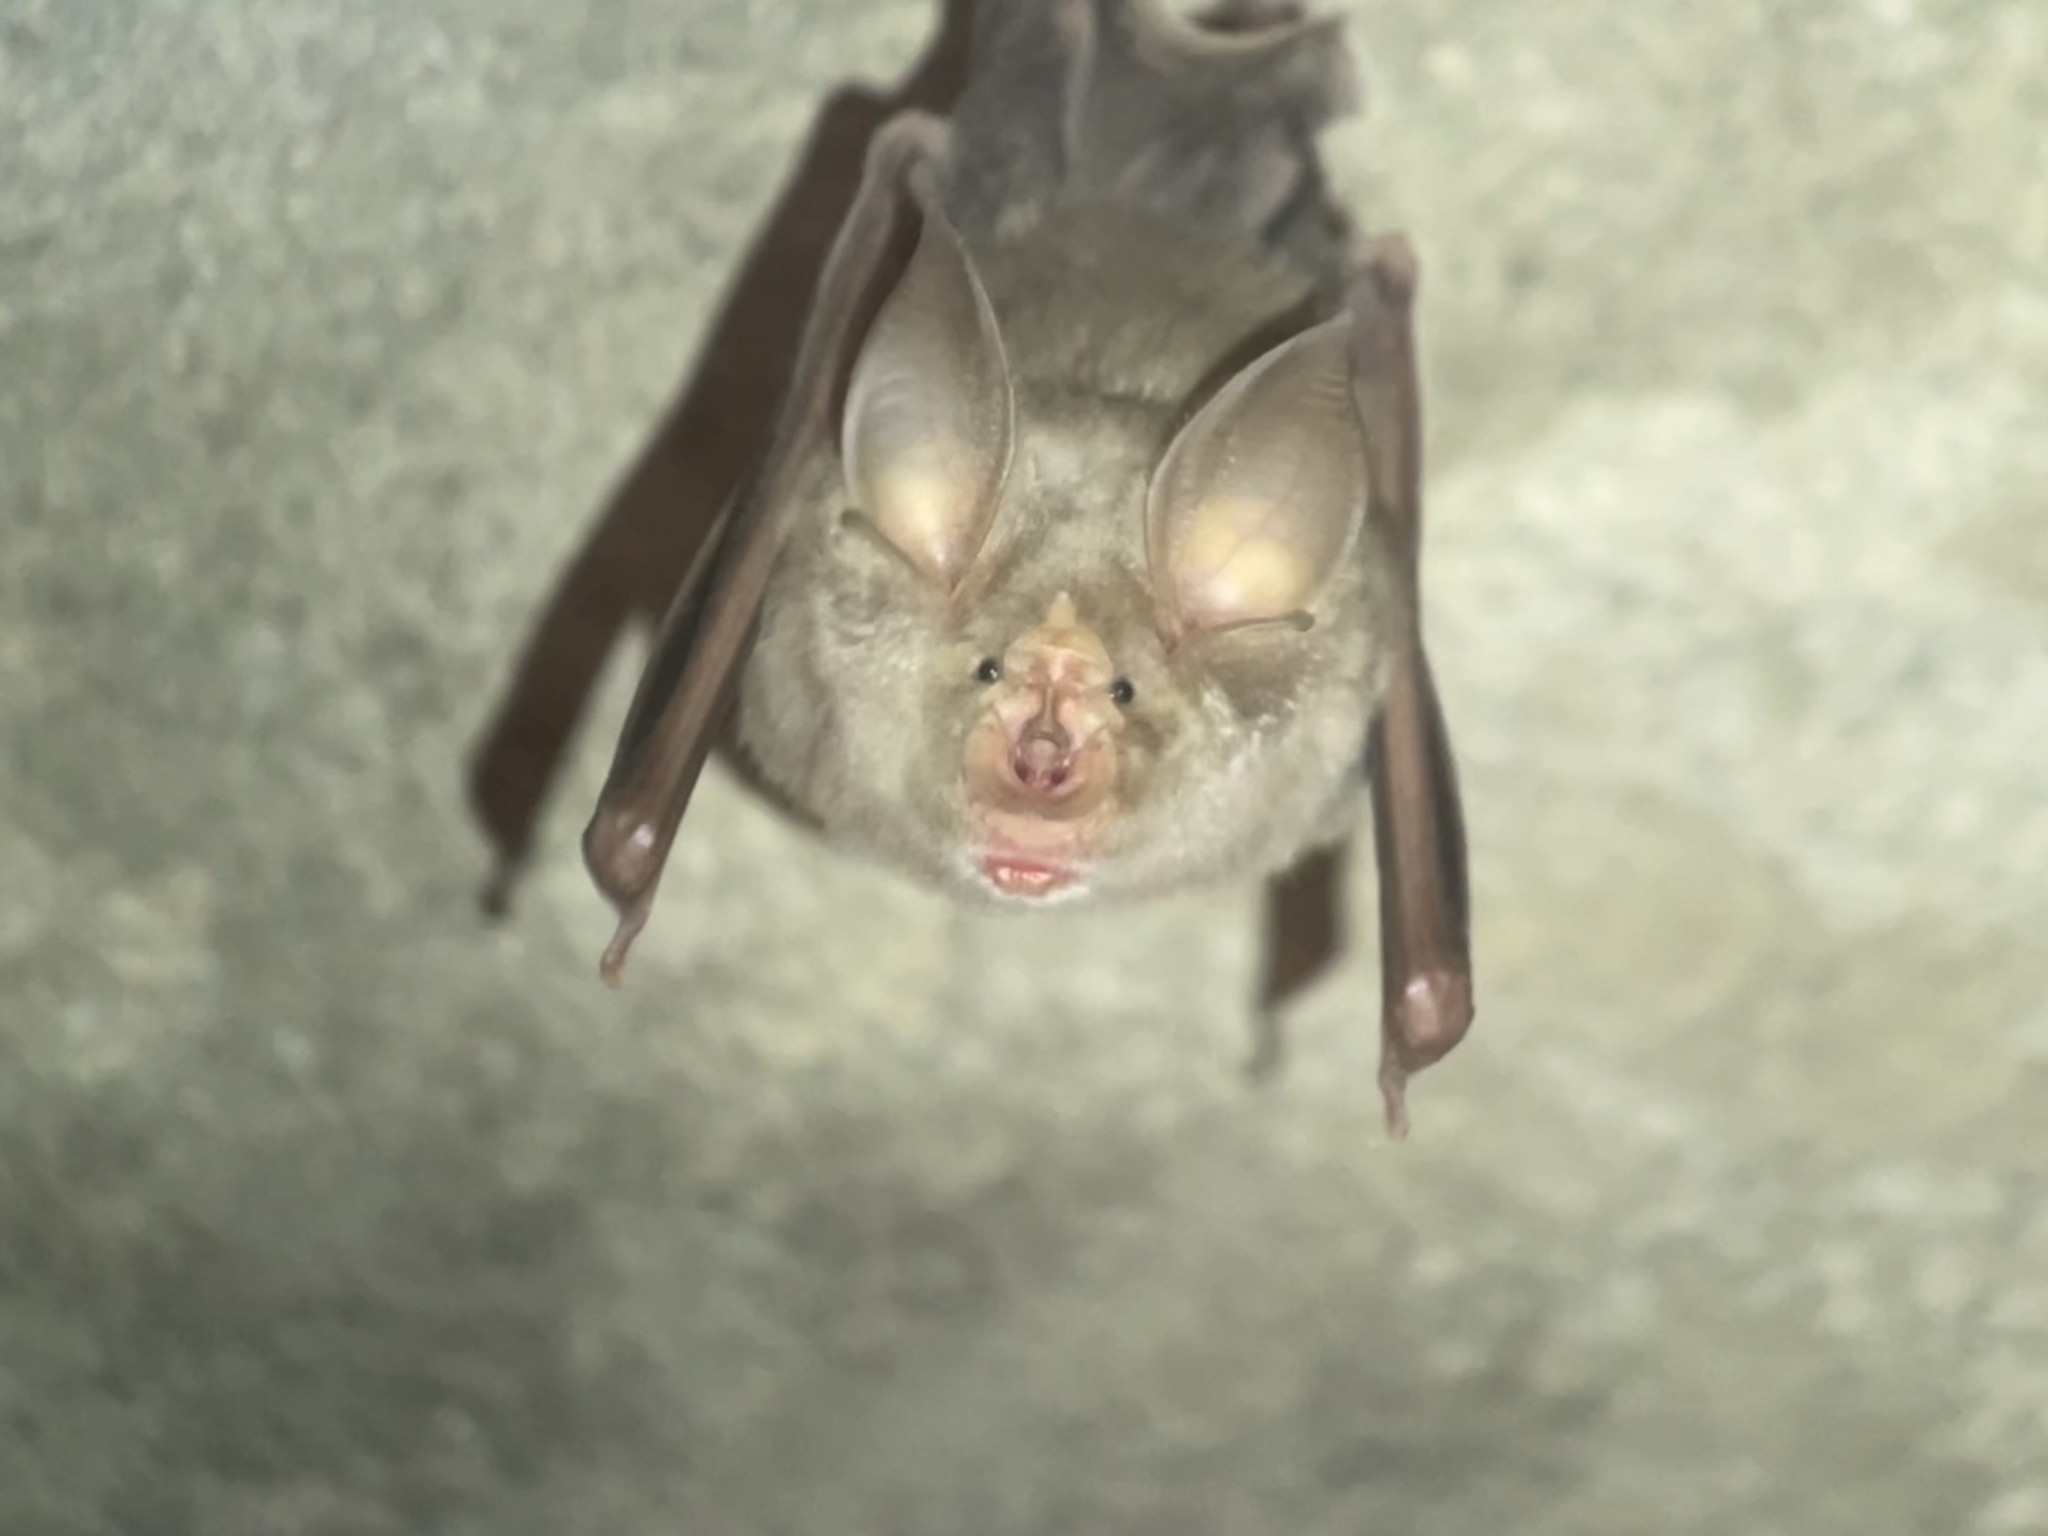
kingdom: Animalia
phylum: Chordata
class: Mammalia
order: Chiroptera
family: Rhinolophidae
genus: Rhinolophus
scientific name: Rhinolophus ferrumequinum
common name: Greater horseshoe bat
